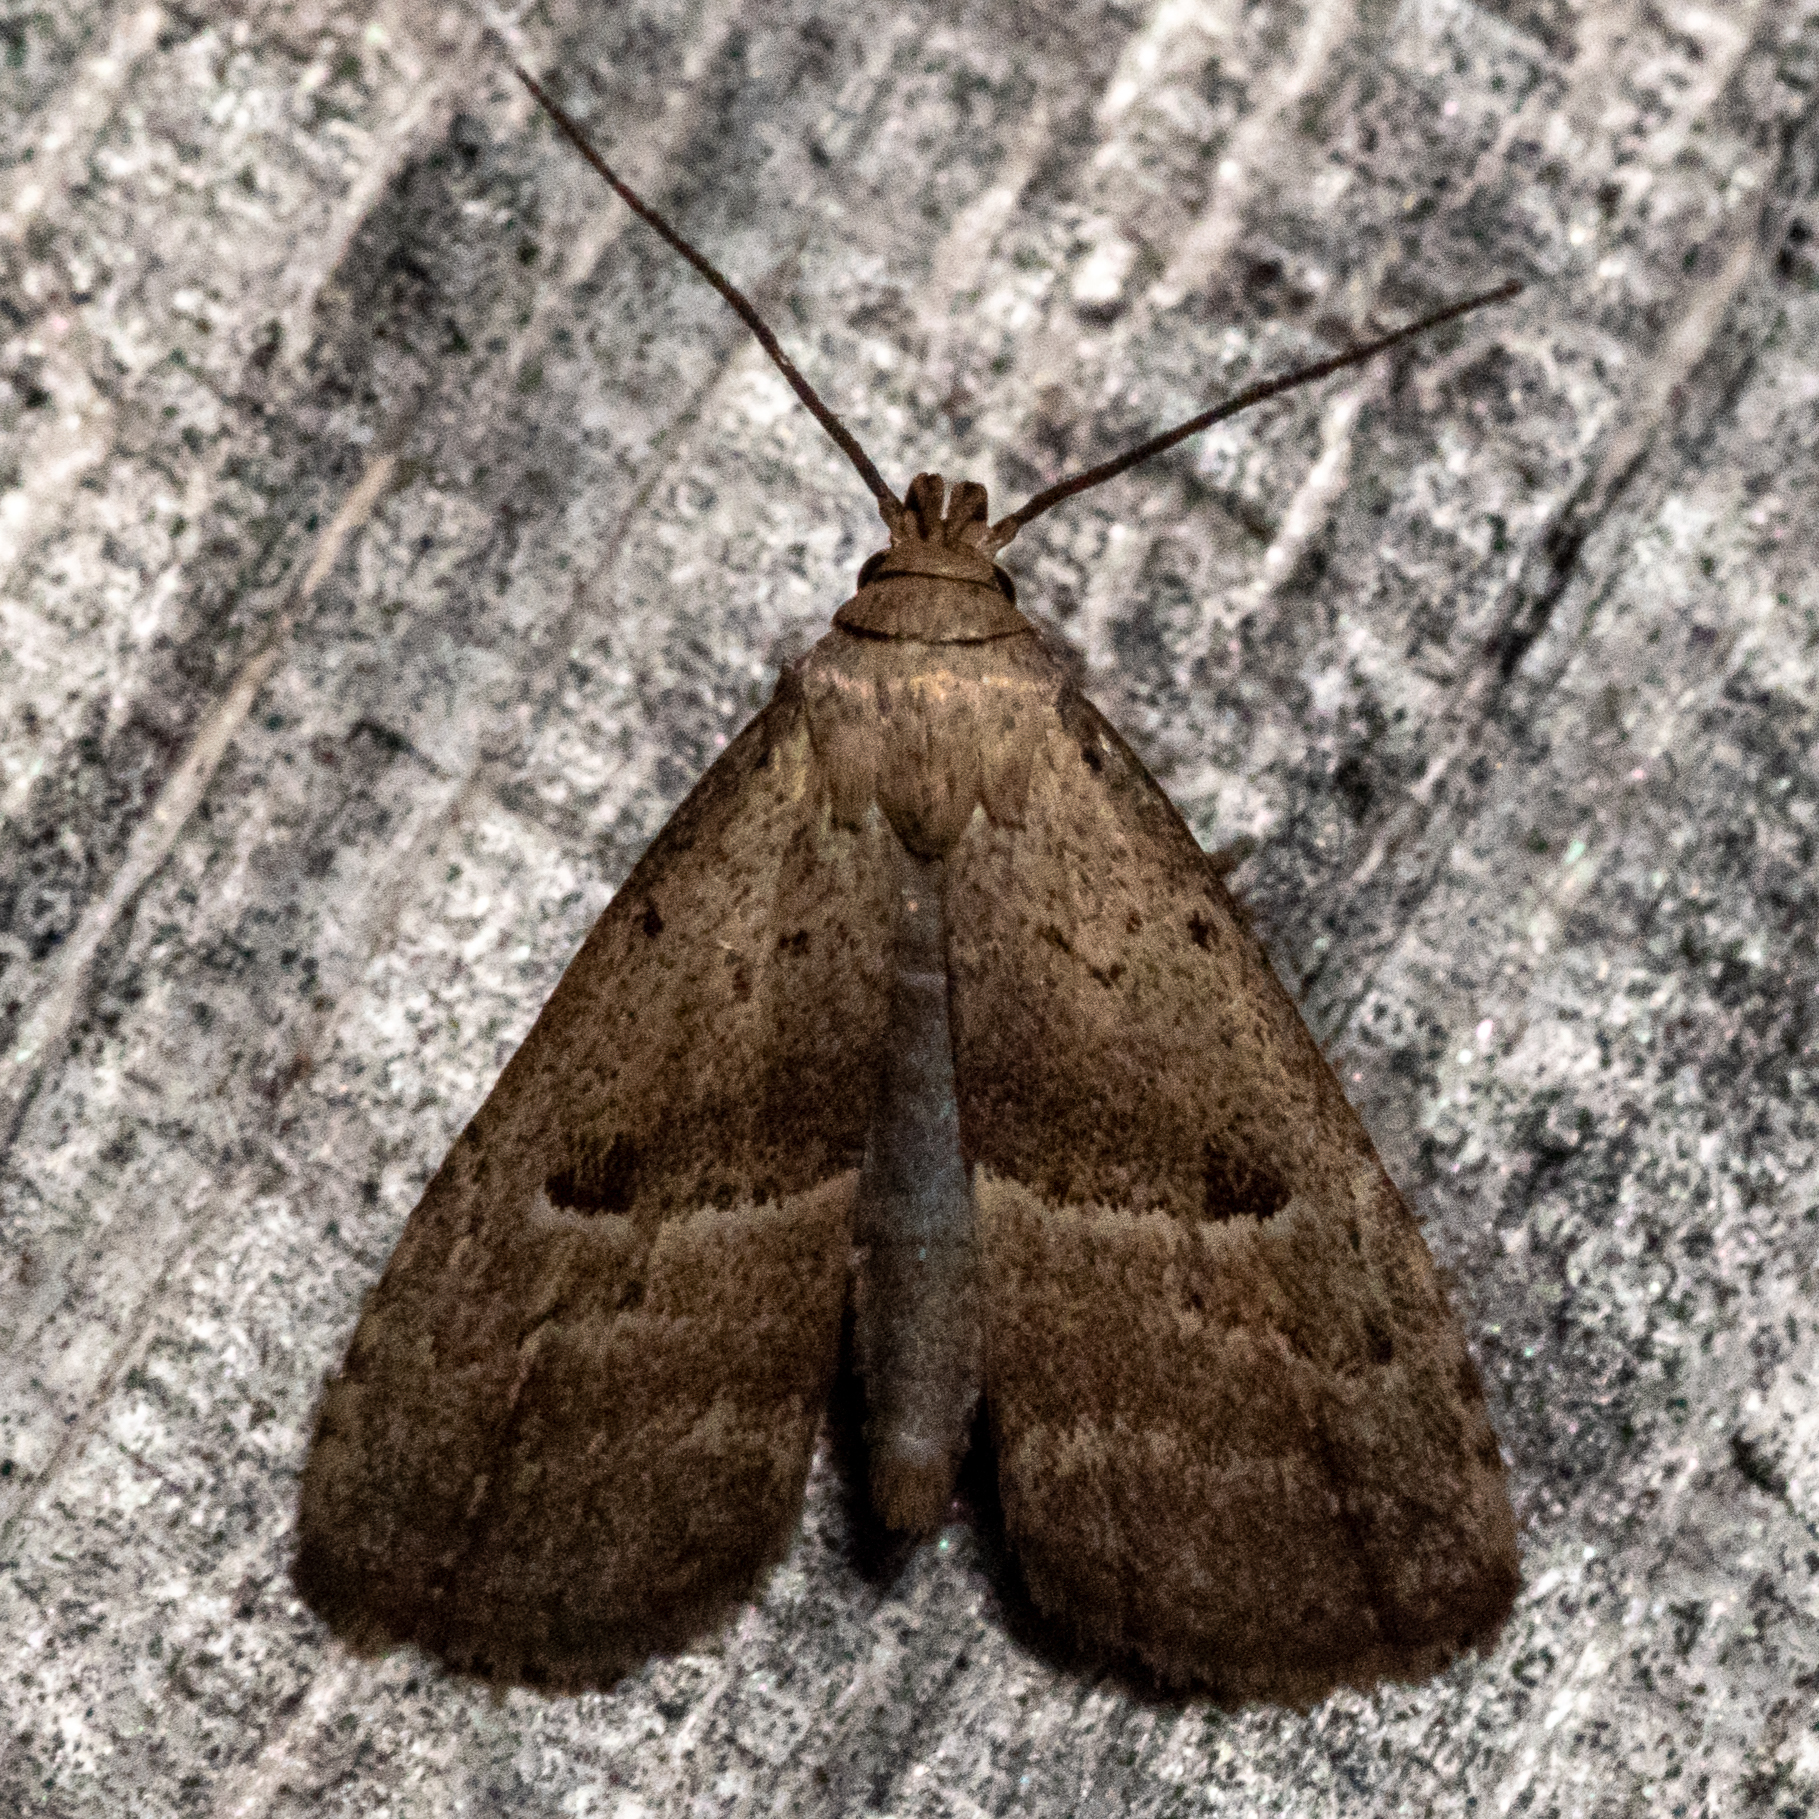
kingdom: Animalia
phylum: Arthropoda
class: Insecta
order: Lepidoptera
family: Erebidae
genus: Hypenodes
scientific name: Hypenodes fractilinea
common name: Broken-line hypenodes moth
